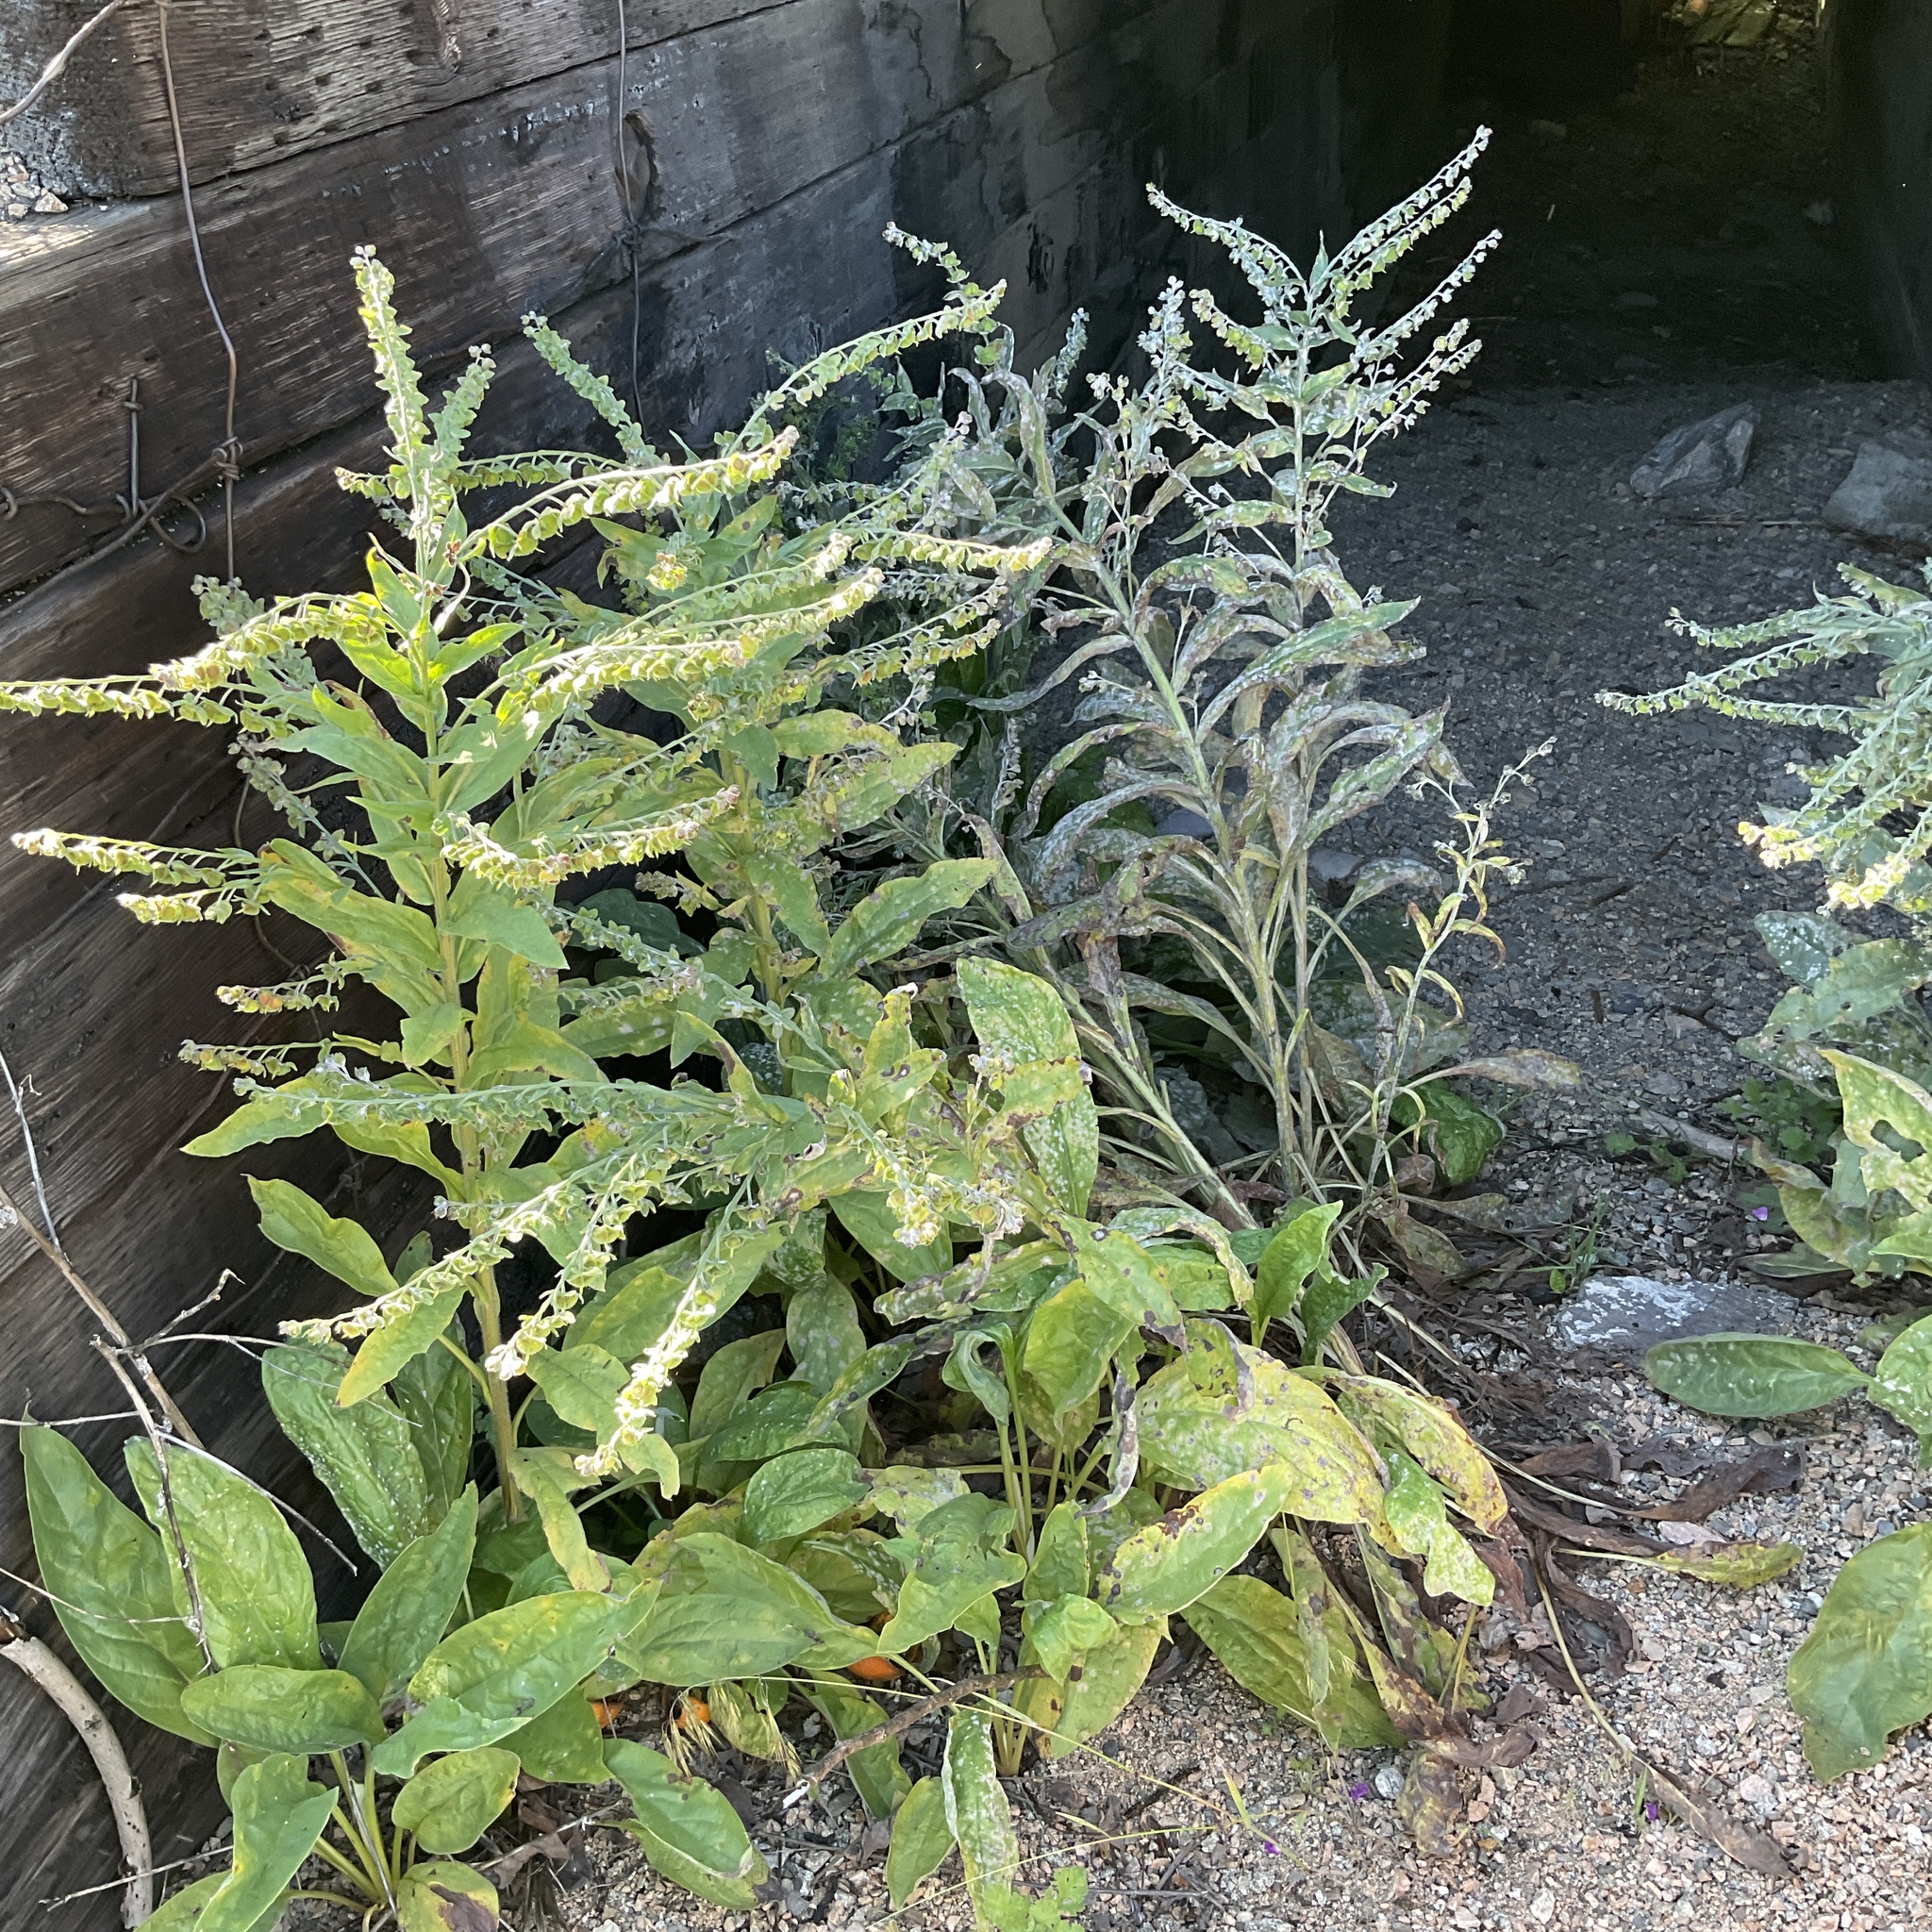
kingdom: Plantae
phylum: Tracheophyta
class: Magnoliopsida
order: Boraginales
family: Boraginaceae
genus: Cynoglossum
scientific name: Cynoglossum officinale
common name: Hound's-tongue
